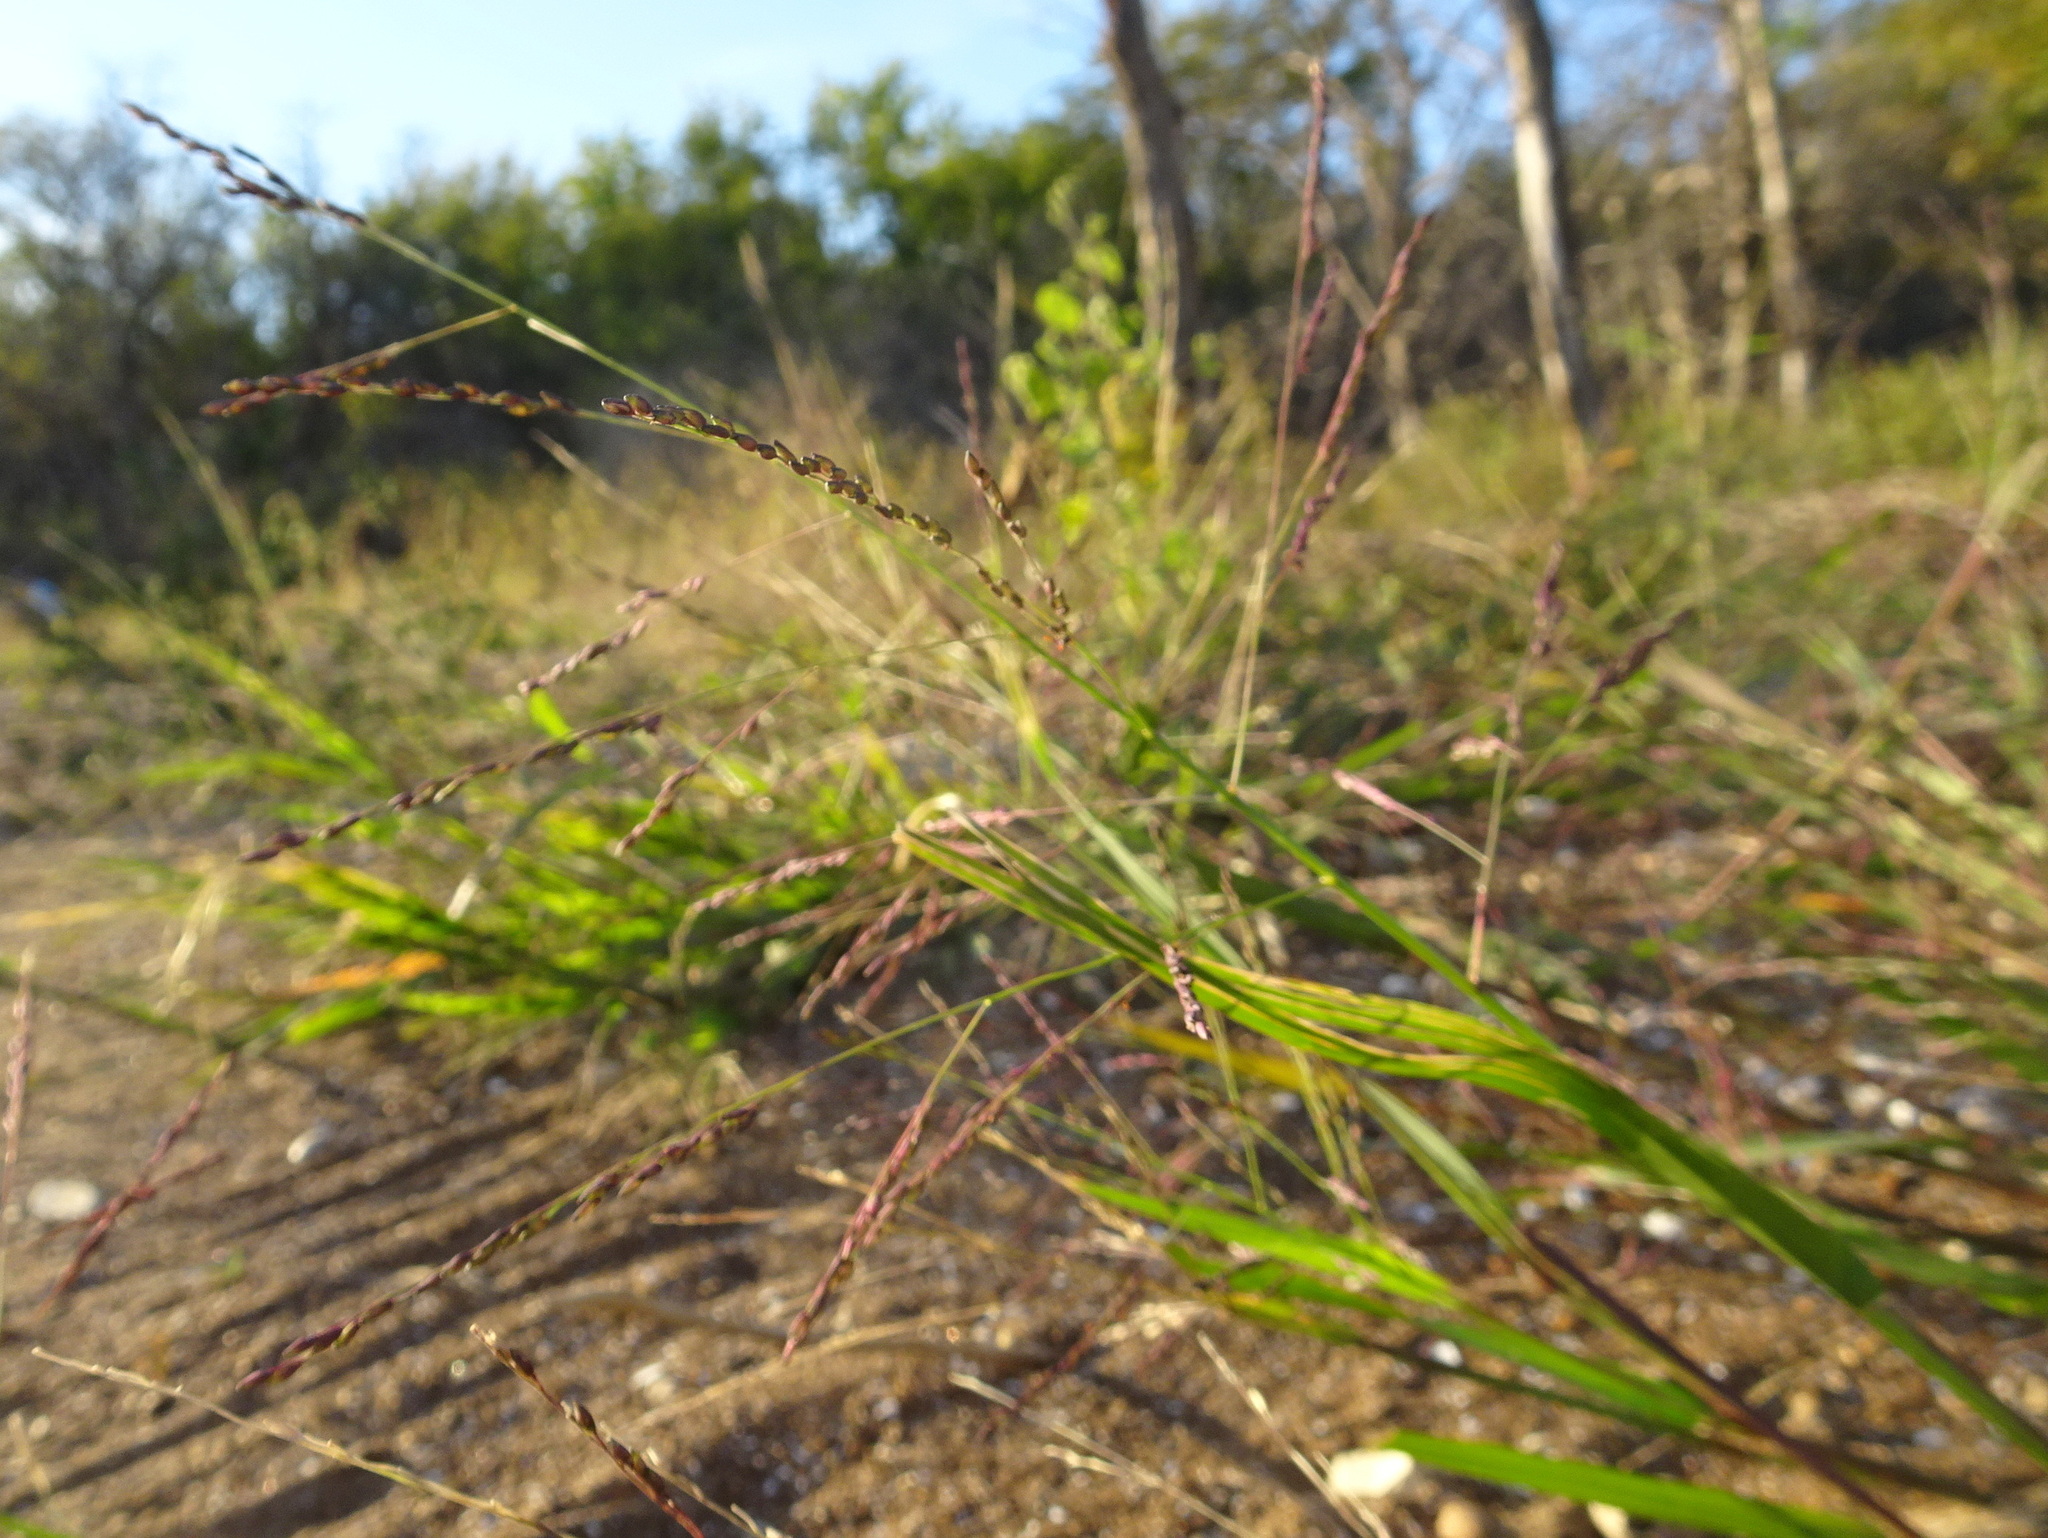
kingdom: Plantae
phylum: Tracheophyta
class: Liliopsida
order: Poales
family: Poaceae
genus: Panicum
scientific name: Panicum dichotomiflorum
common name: Autumn millet
